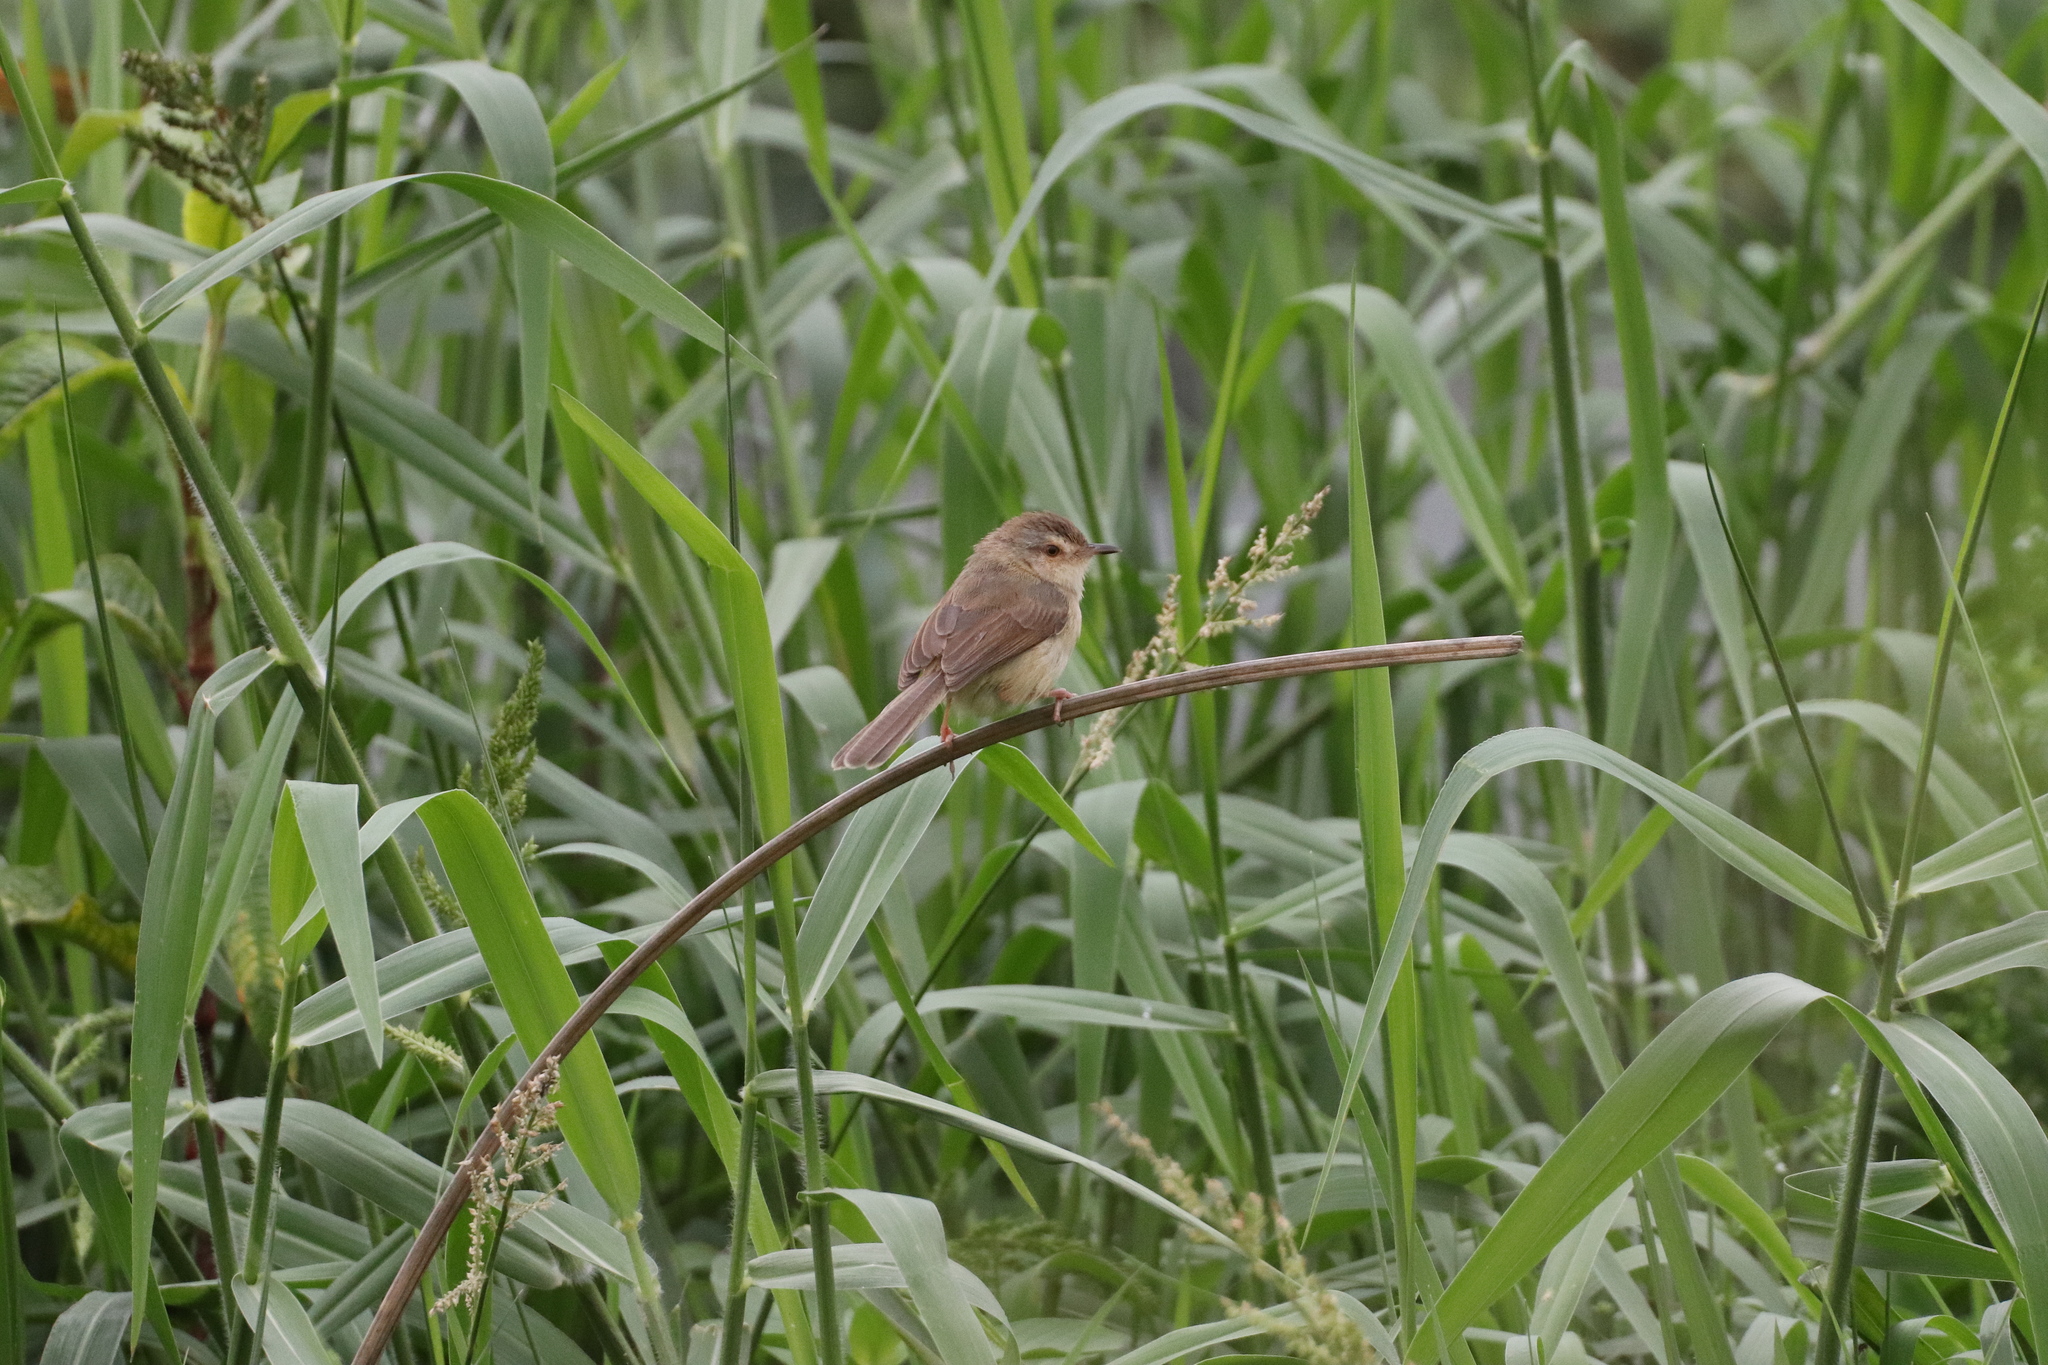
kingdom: Animalia
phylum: Chordata
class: Aves
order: Passeriformes
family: Cisticolidae
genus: Prinia
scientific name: Prinia inornata
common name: Plain prinia
